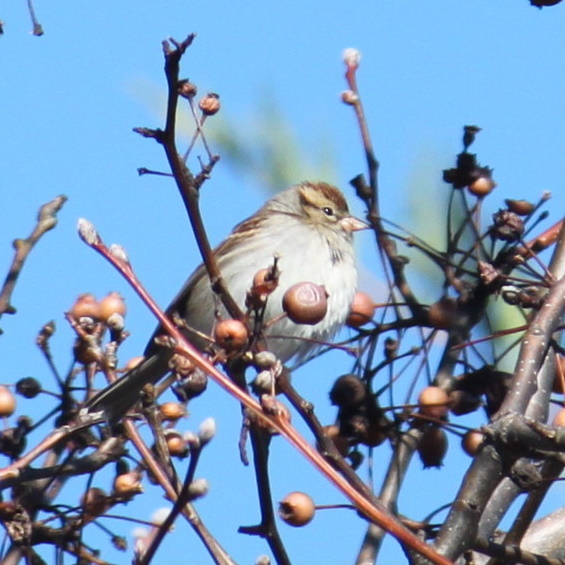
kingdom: Animalia
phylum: Chordata
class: Aves
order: Passeriformes
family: Passerellidae
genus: Spizella
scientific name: Spizella passerina
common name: Chipping sparrow
